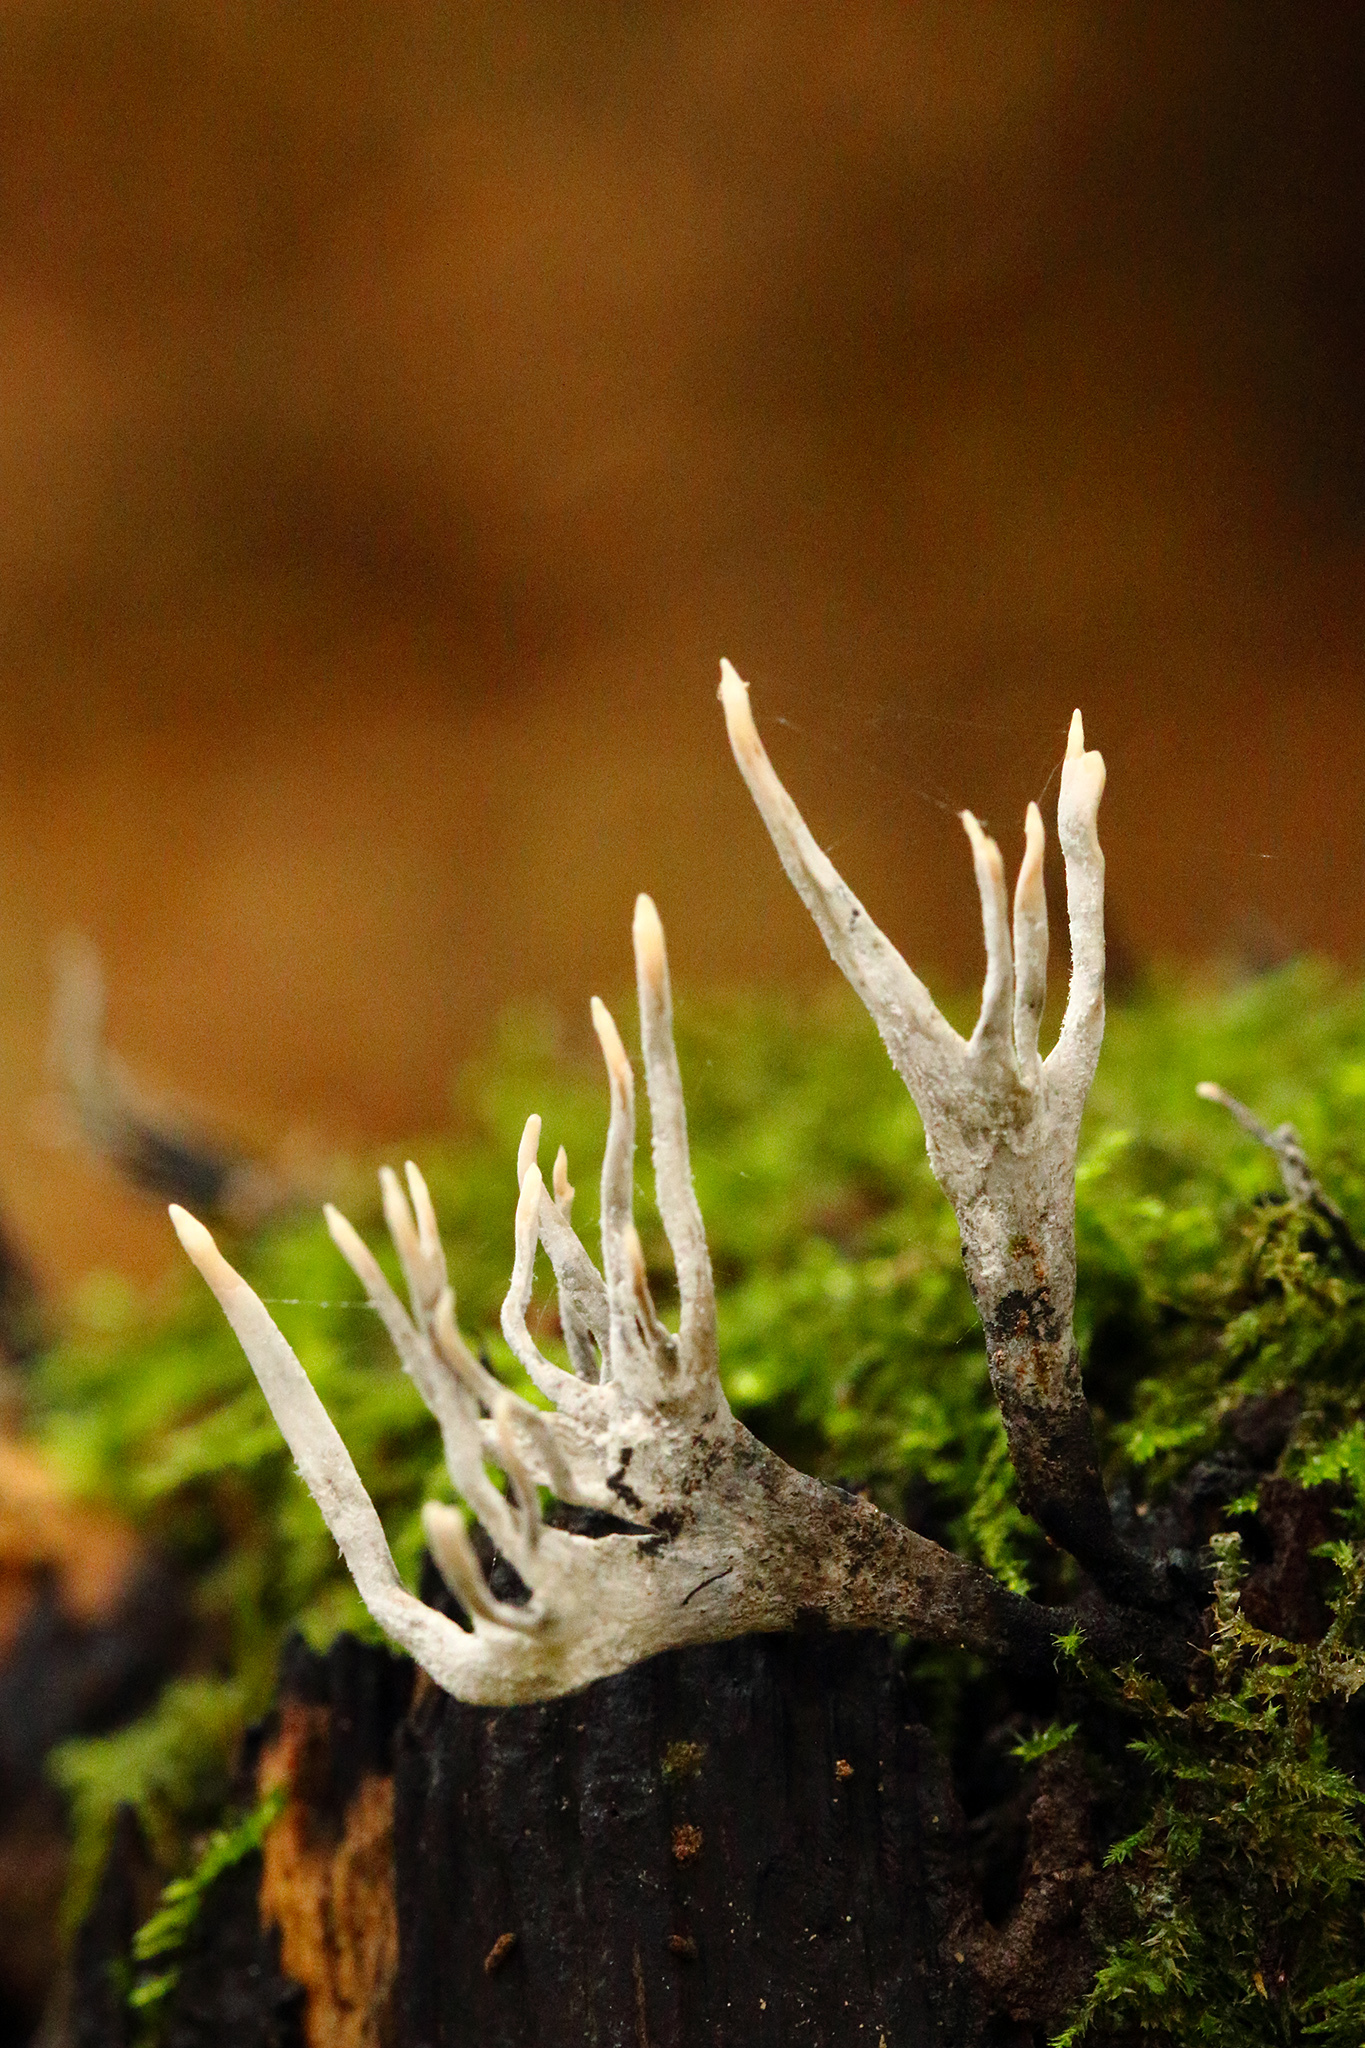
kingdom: Fungi
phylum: Ascomycota
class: Sordariomycetes
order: Xylariales
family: Xylariaceae
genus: Xylaria
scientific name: Xylaria hypoxylon
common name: Candle-snuff fungus
